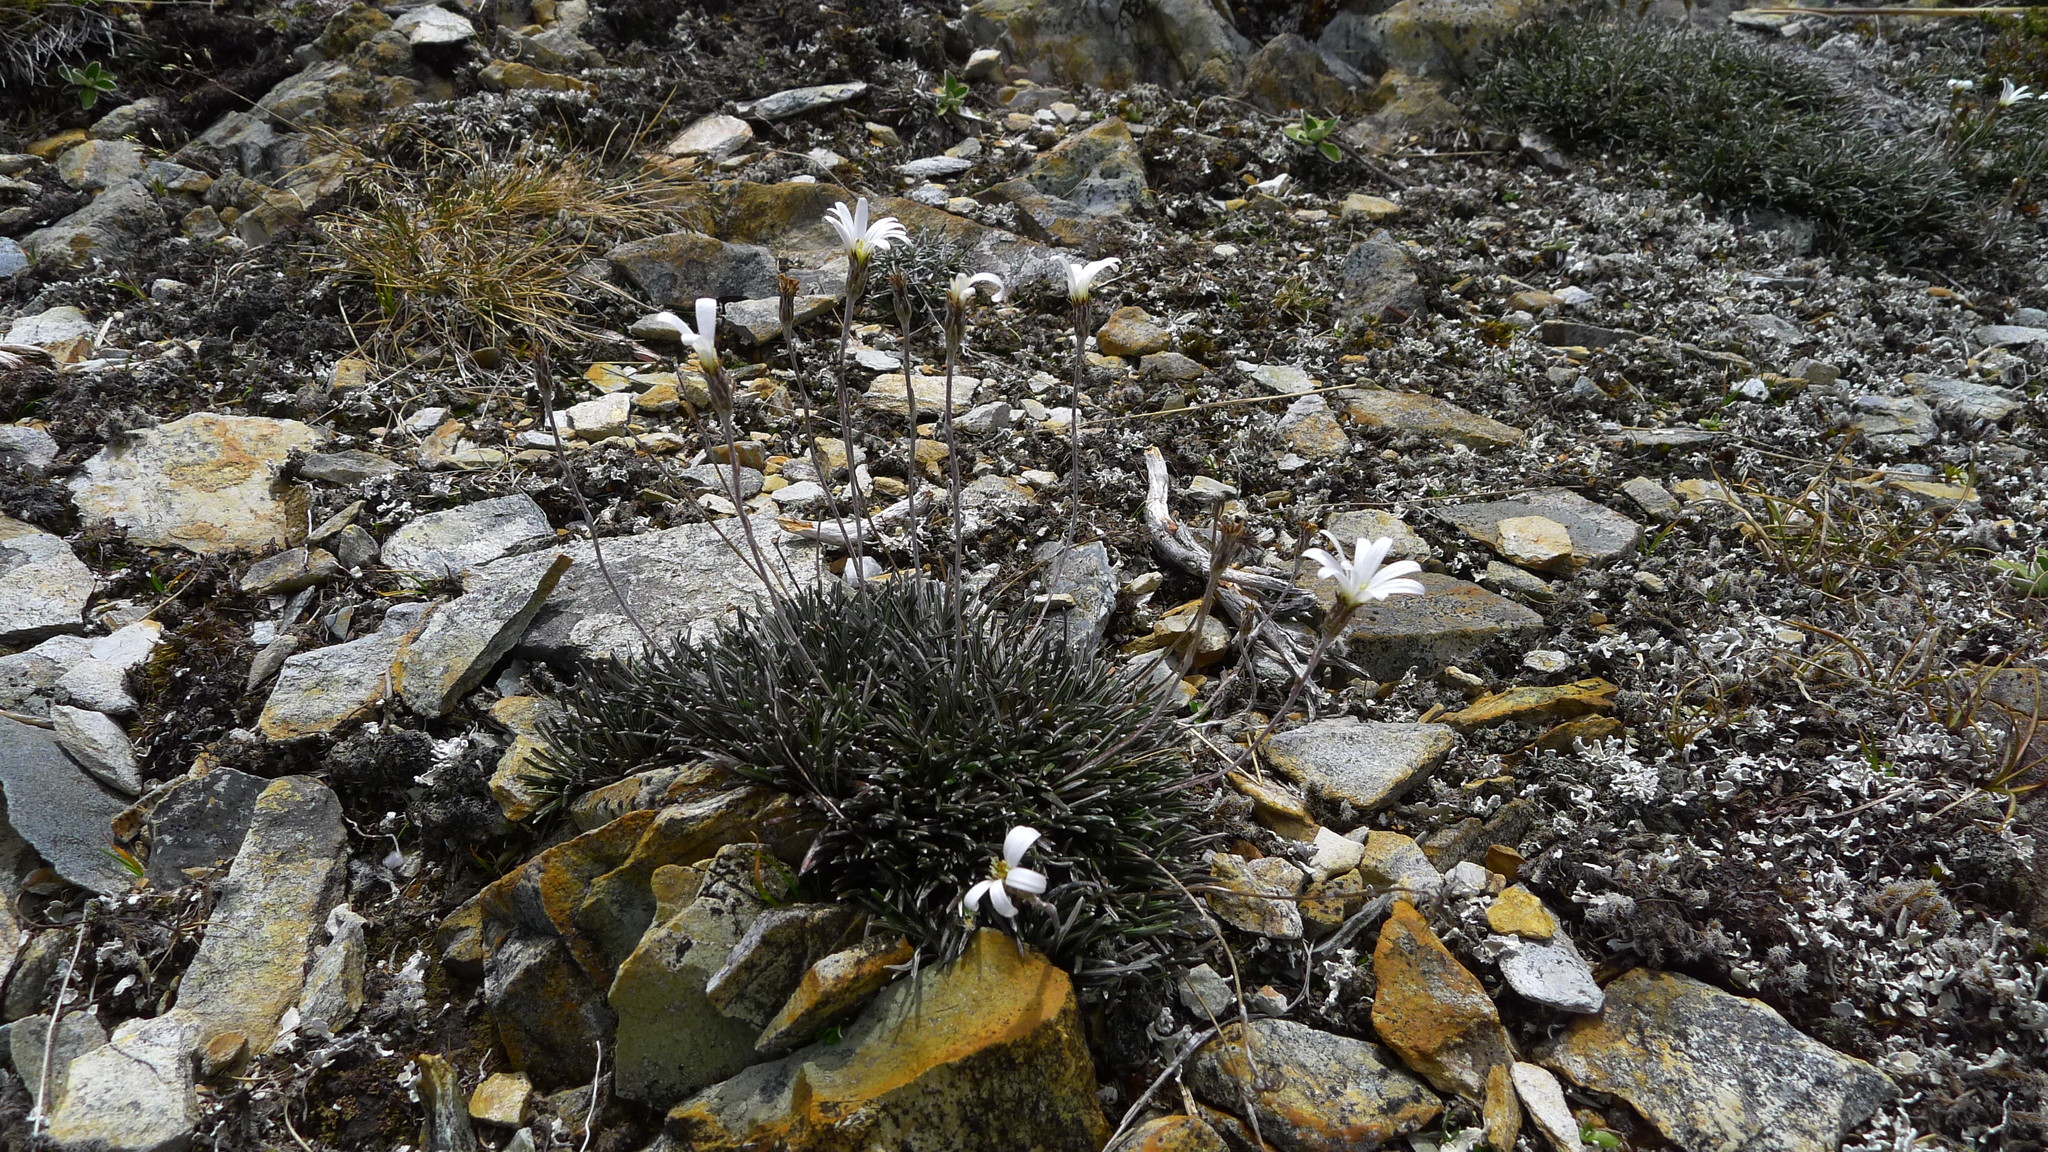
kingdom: Plantae
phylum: Tracheophyta
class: Magnoliopsida
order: Asterales
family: Asteraceae
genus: Celmisia
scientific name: Celmisia similis
